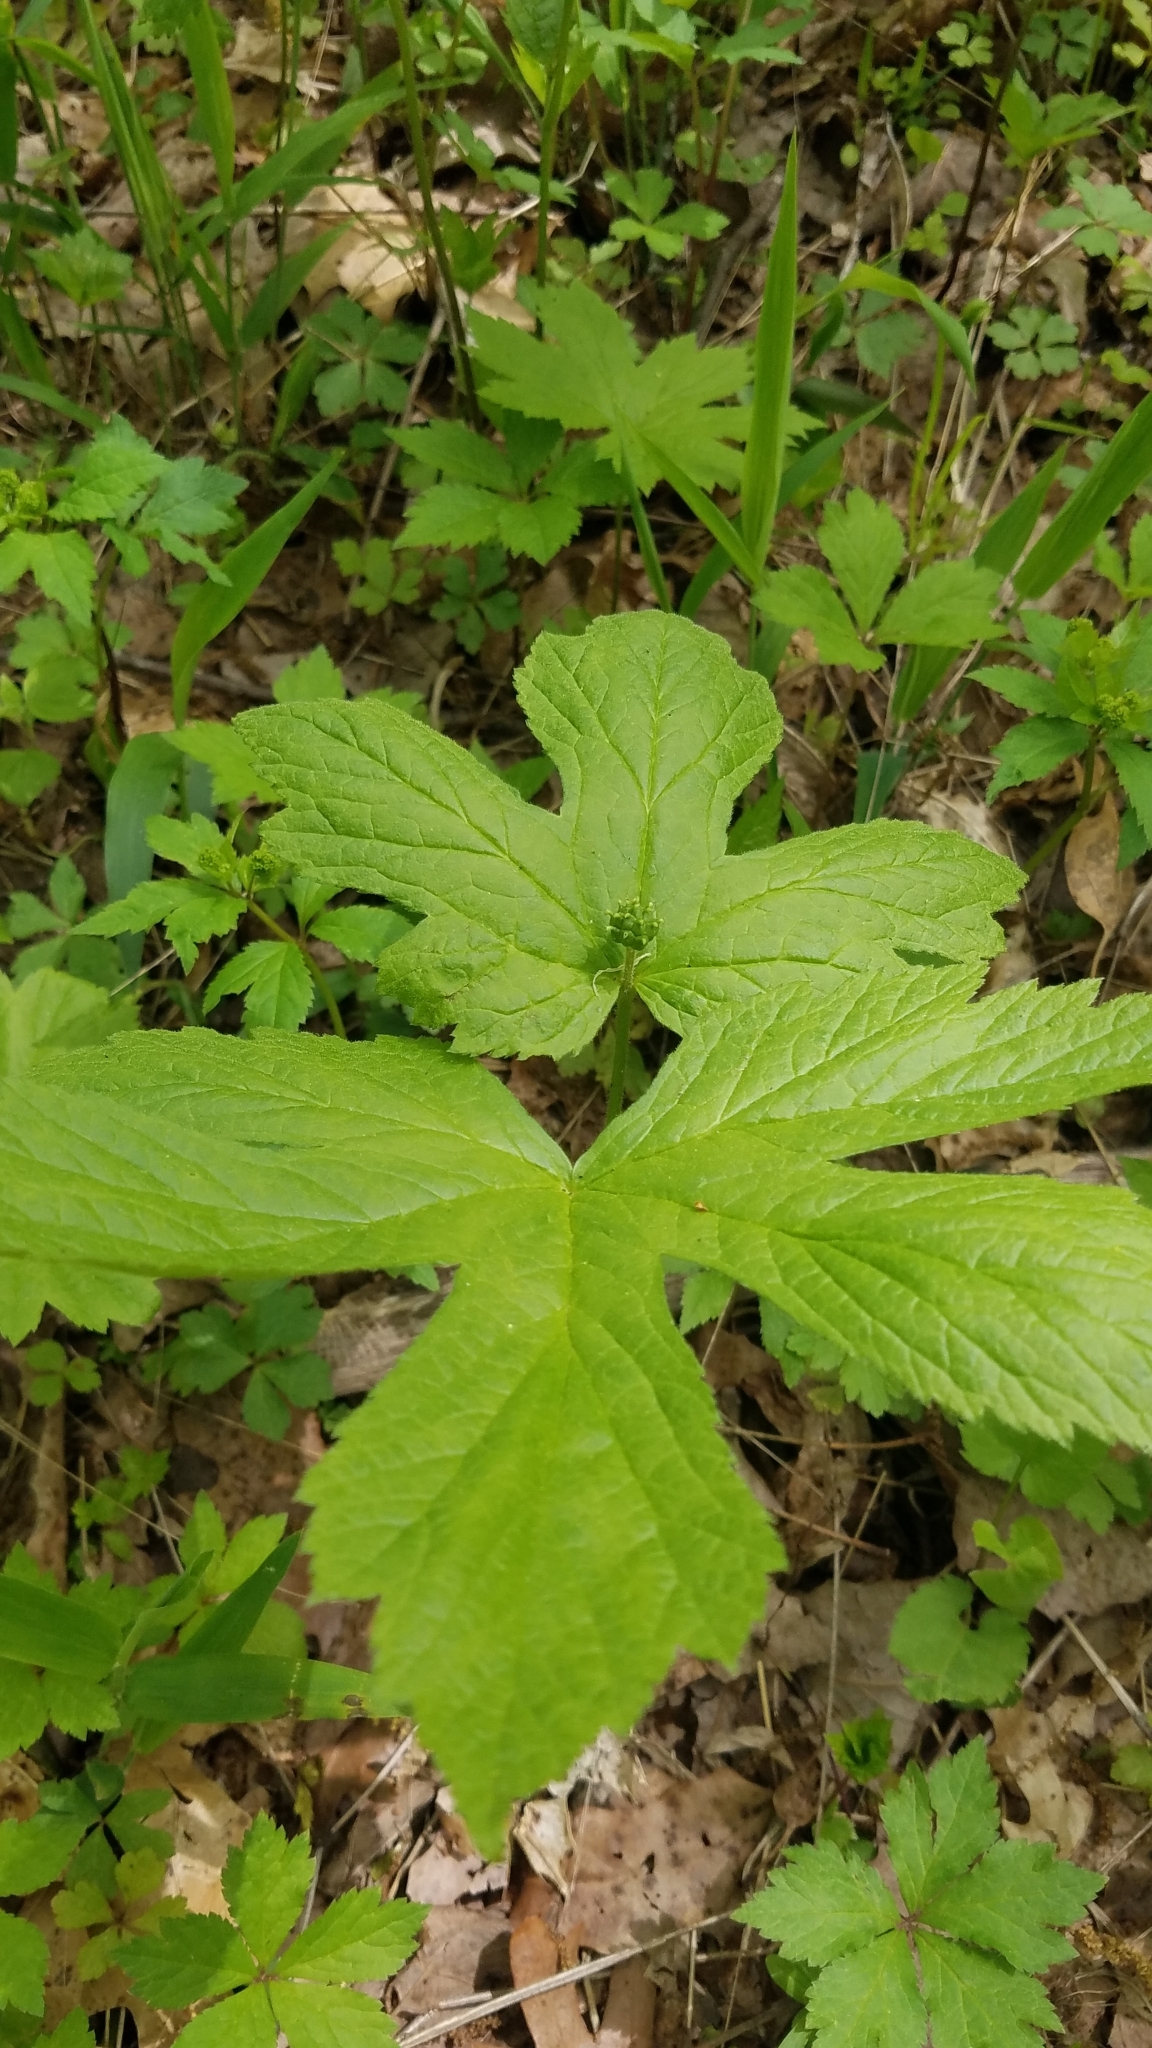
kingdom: Plantae
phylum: Tracheophyta
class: Magnoliopsida
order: Ranunculales
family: Ranunculaceae
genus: Hydrastis
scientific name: Hydrastis canadensis
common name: Goldenseal
